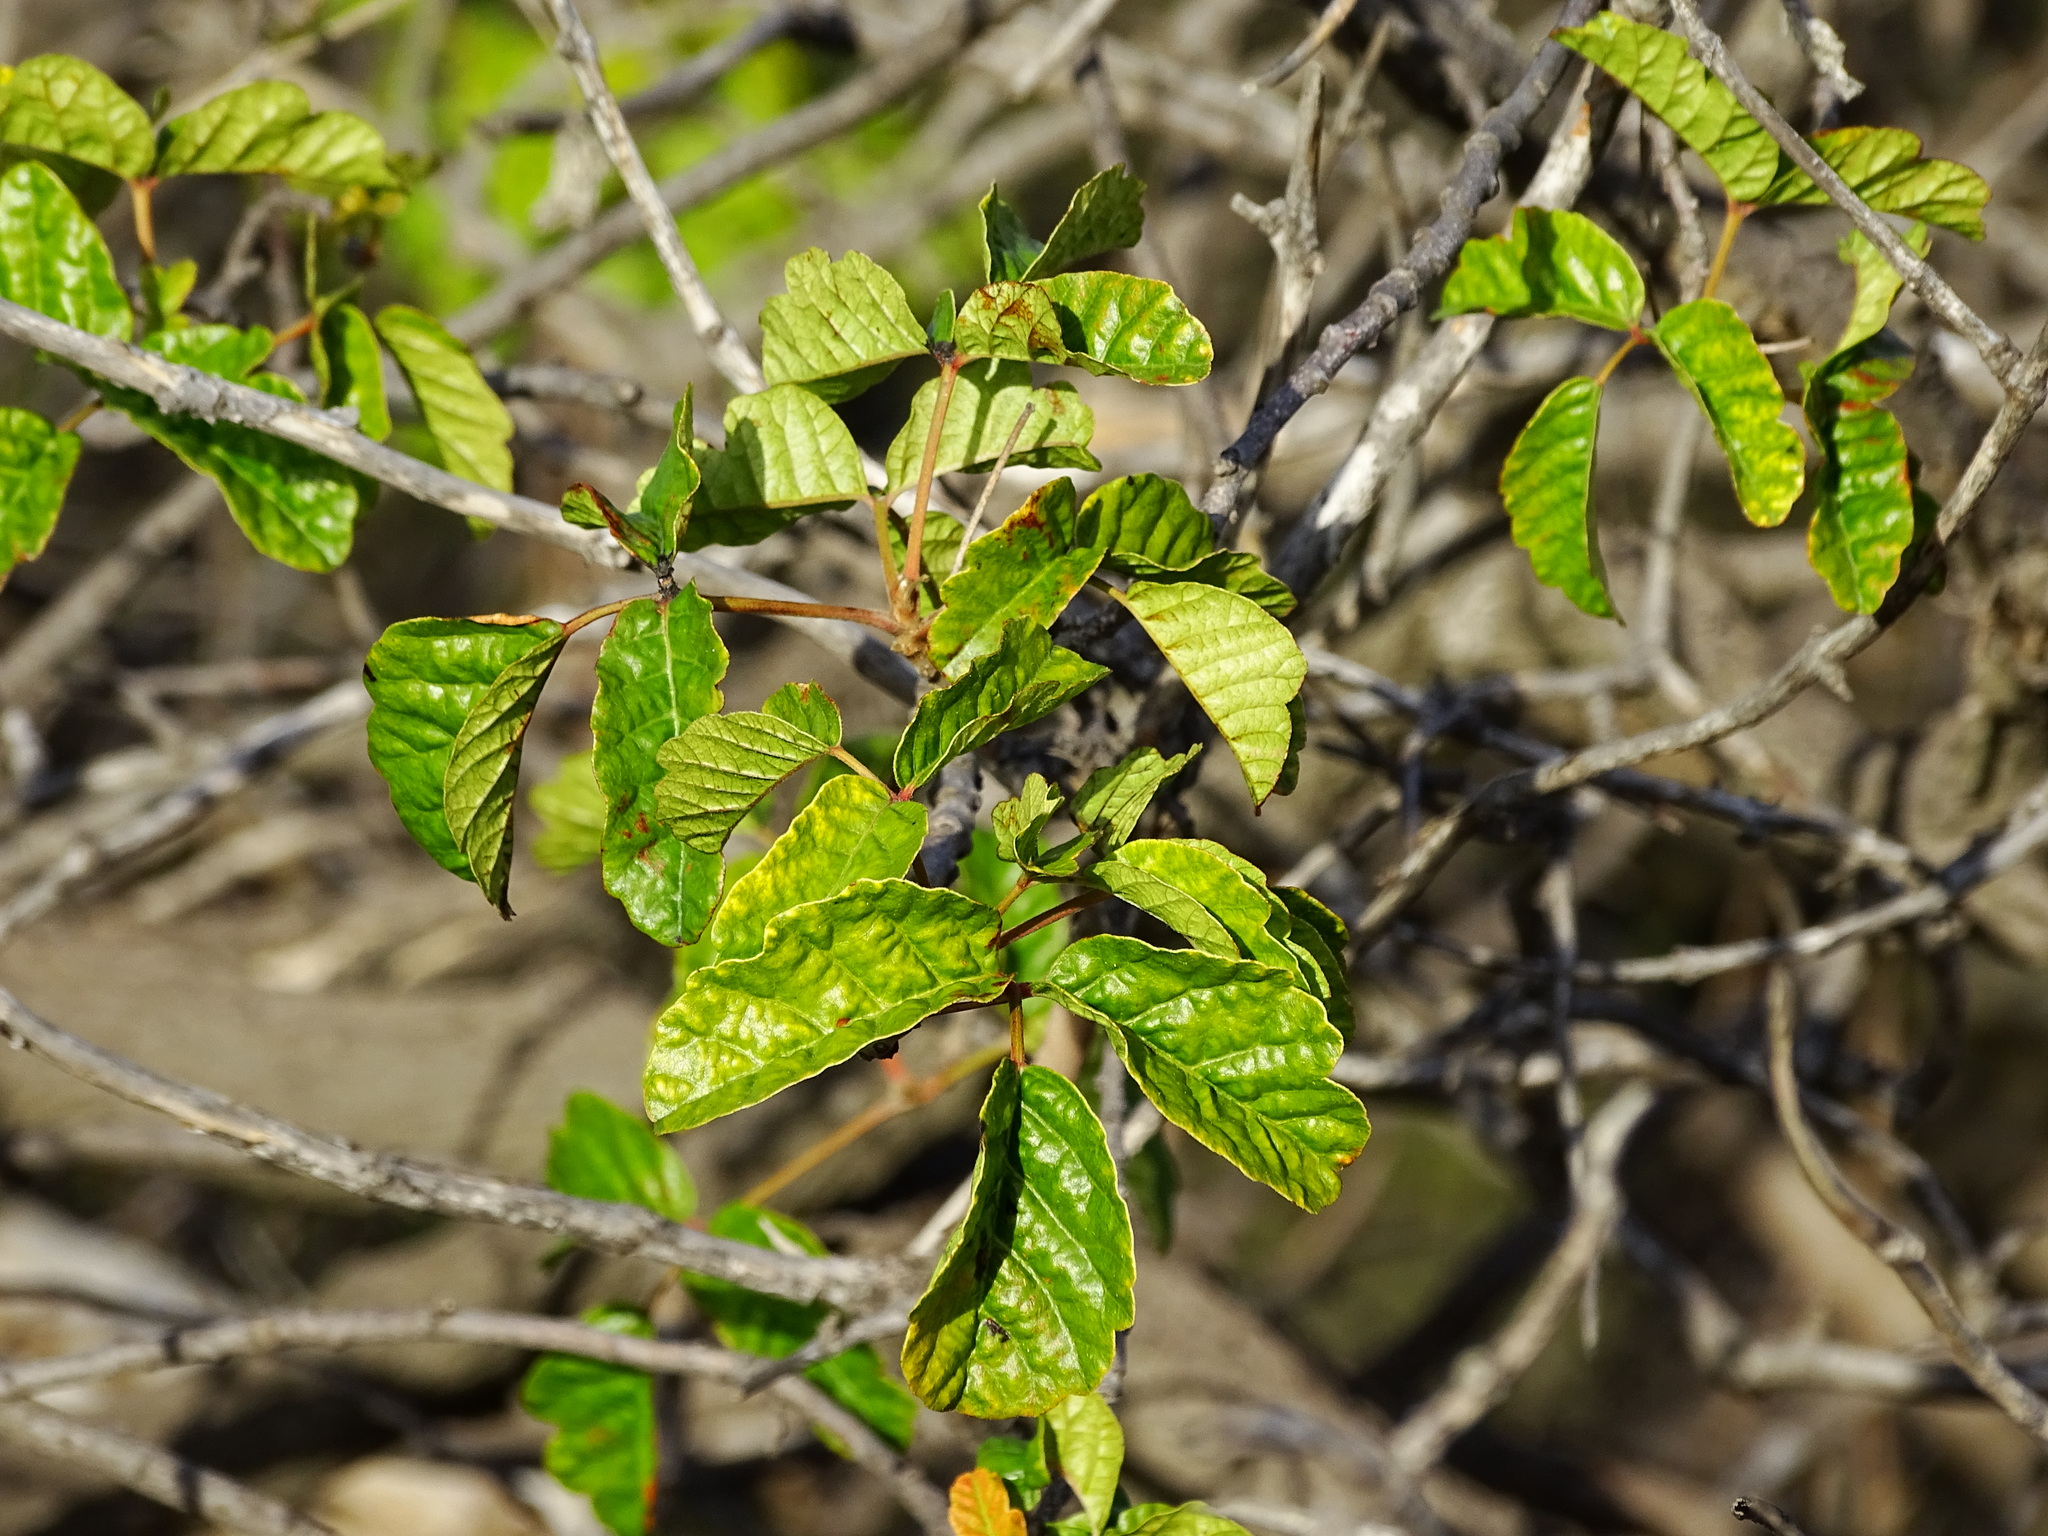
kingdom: Plantae
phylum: Tracheophyta
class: Magnoliopsida
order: Sapindales
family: Anacardiaceae
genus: Toxicodendron
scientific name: Toxicodendron diversilobum
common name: Pacific poison-oak
